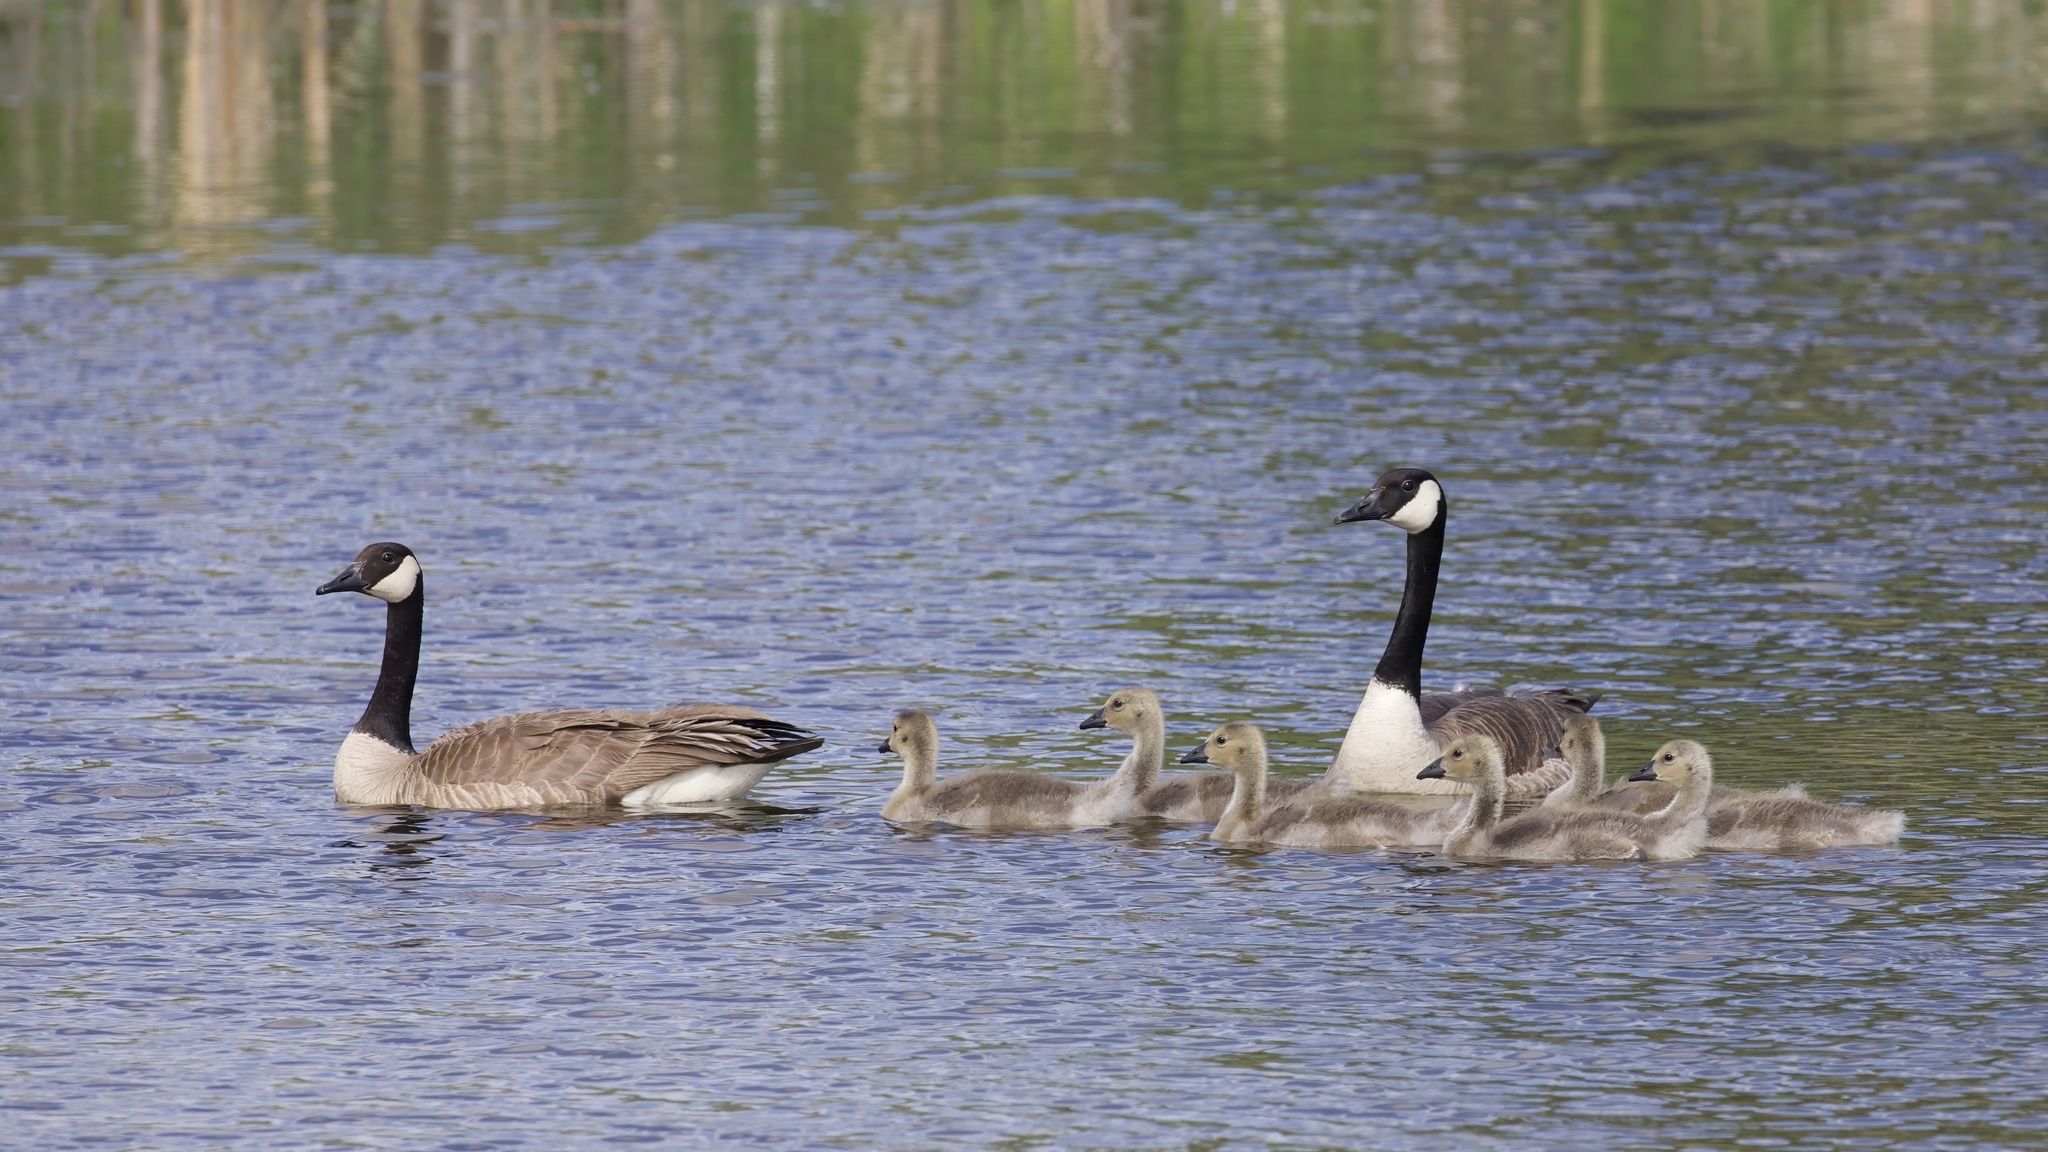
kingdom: Animalia
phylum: Chordata
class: Aves
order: Anseriformes
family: Anatidae
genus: Branta
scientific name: Branta canadensis
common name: Canada goose
